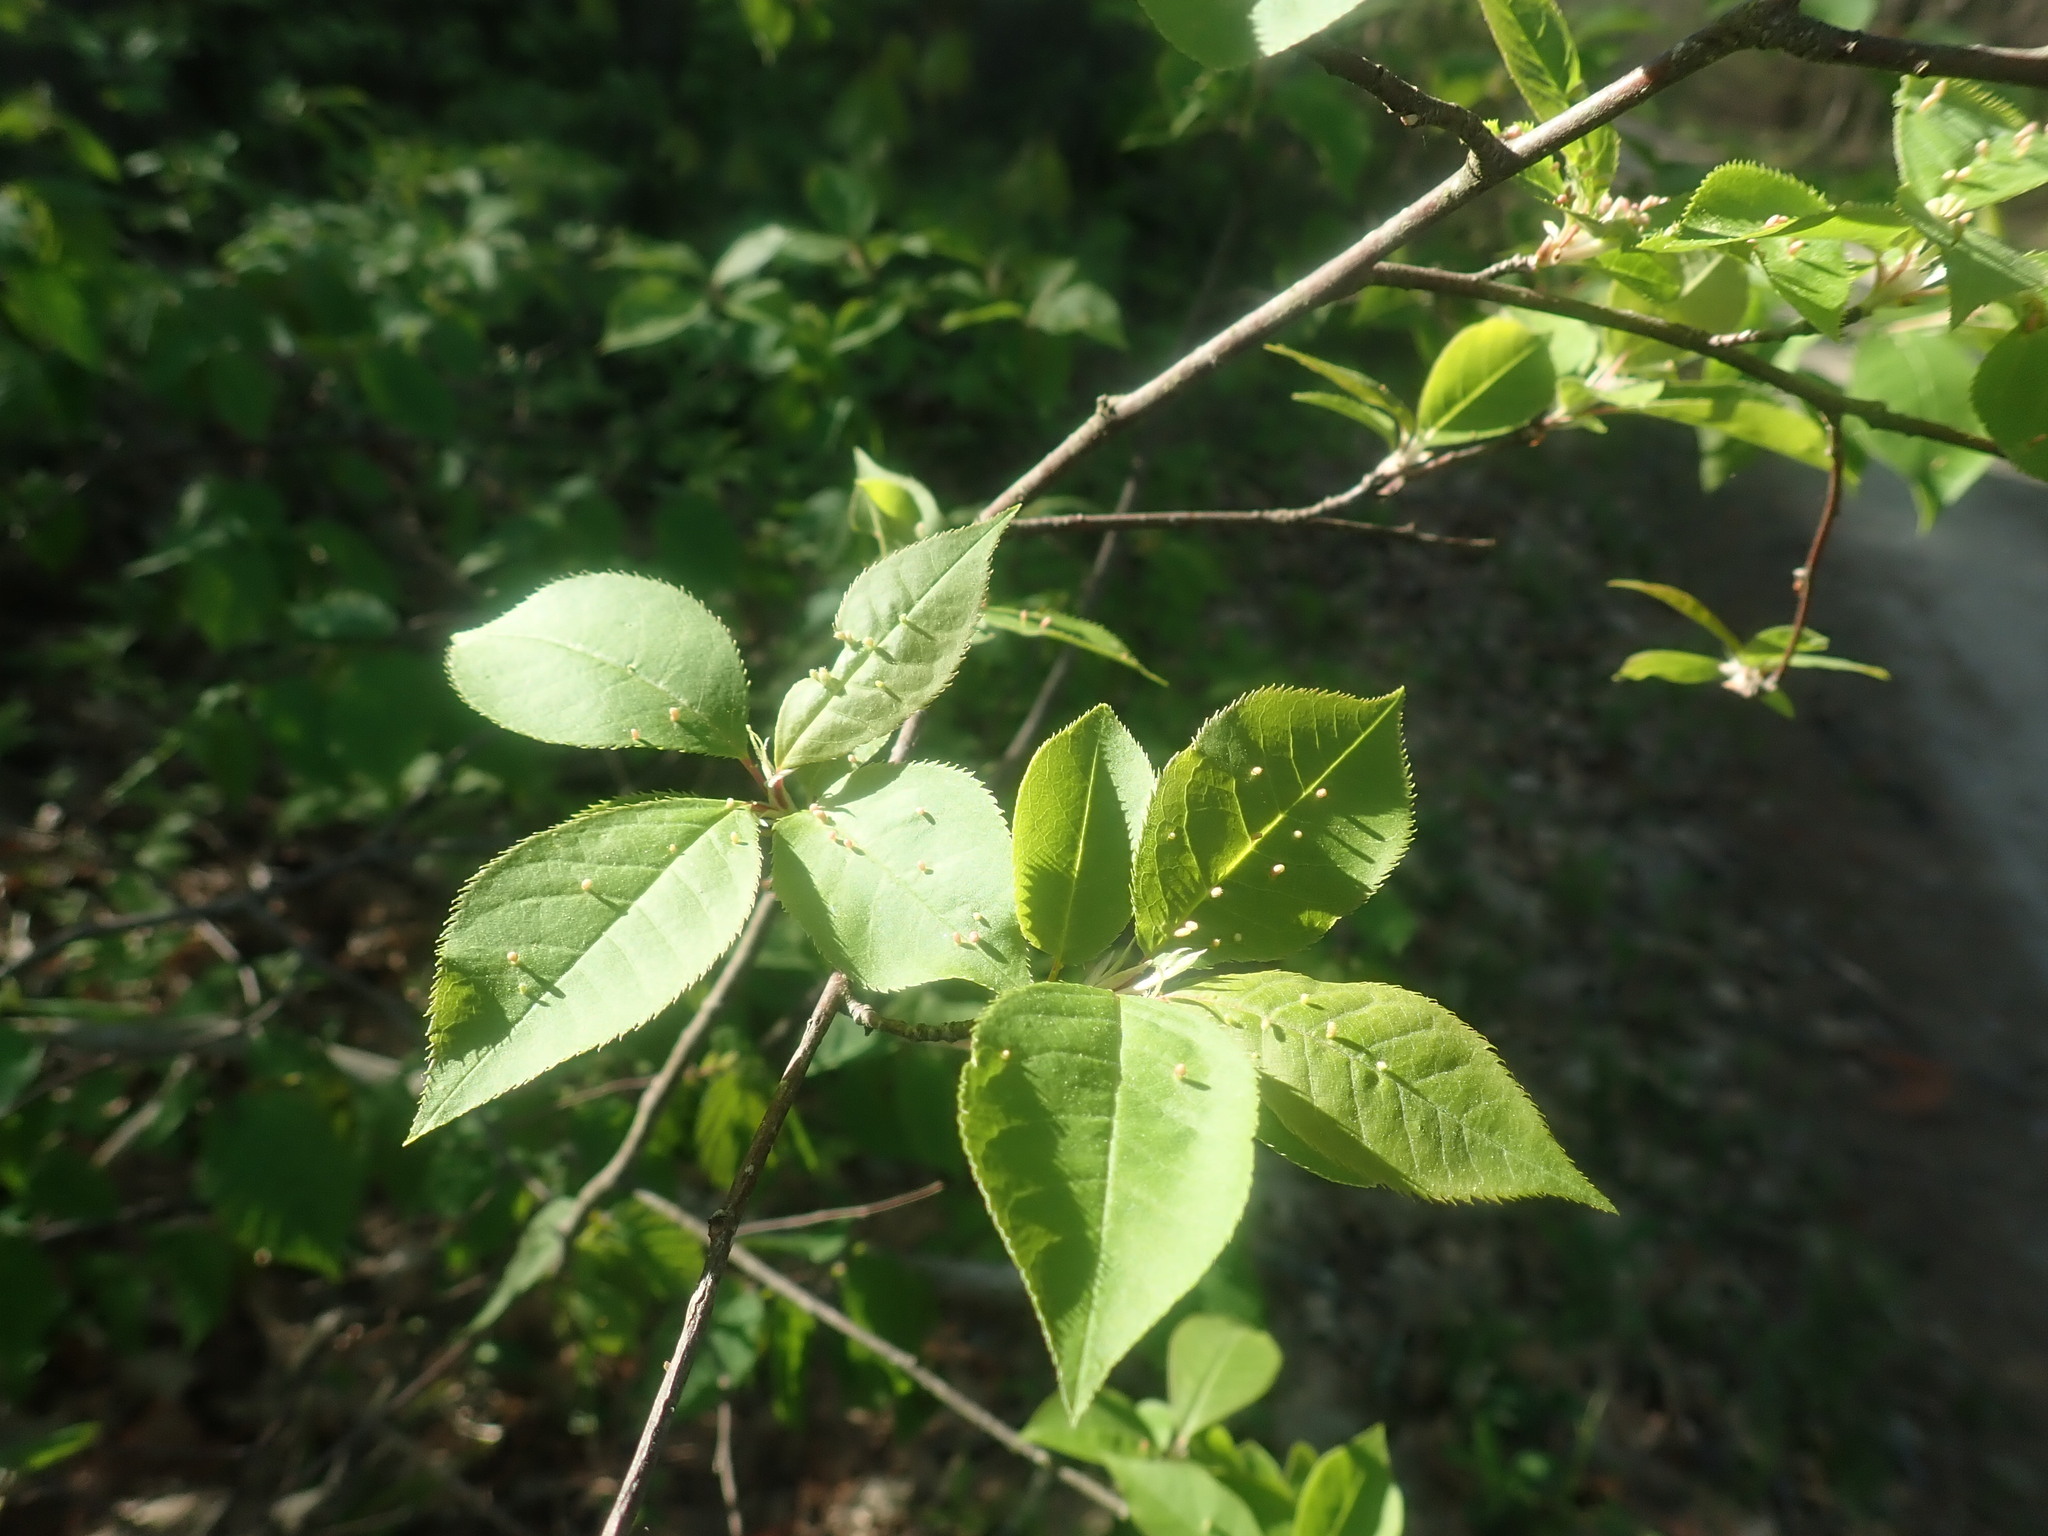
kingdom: Plantae
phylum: Tracheophyta
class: Magnoliopsida
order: Rosales
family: Rosaceae
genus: Prunus
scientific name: Prunus virginiana
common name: Chokecherry
